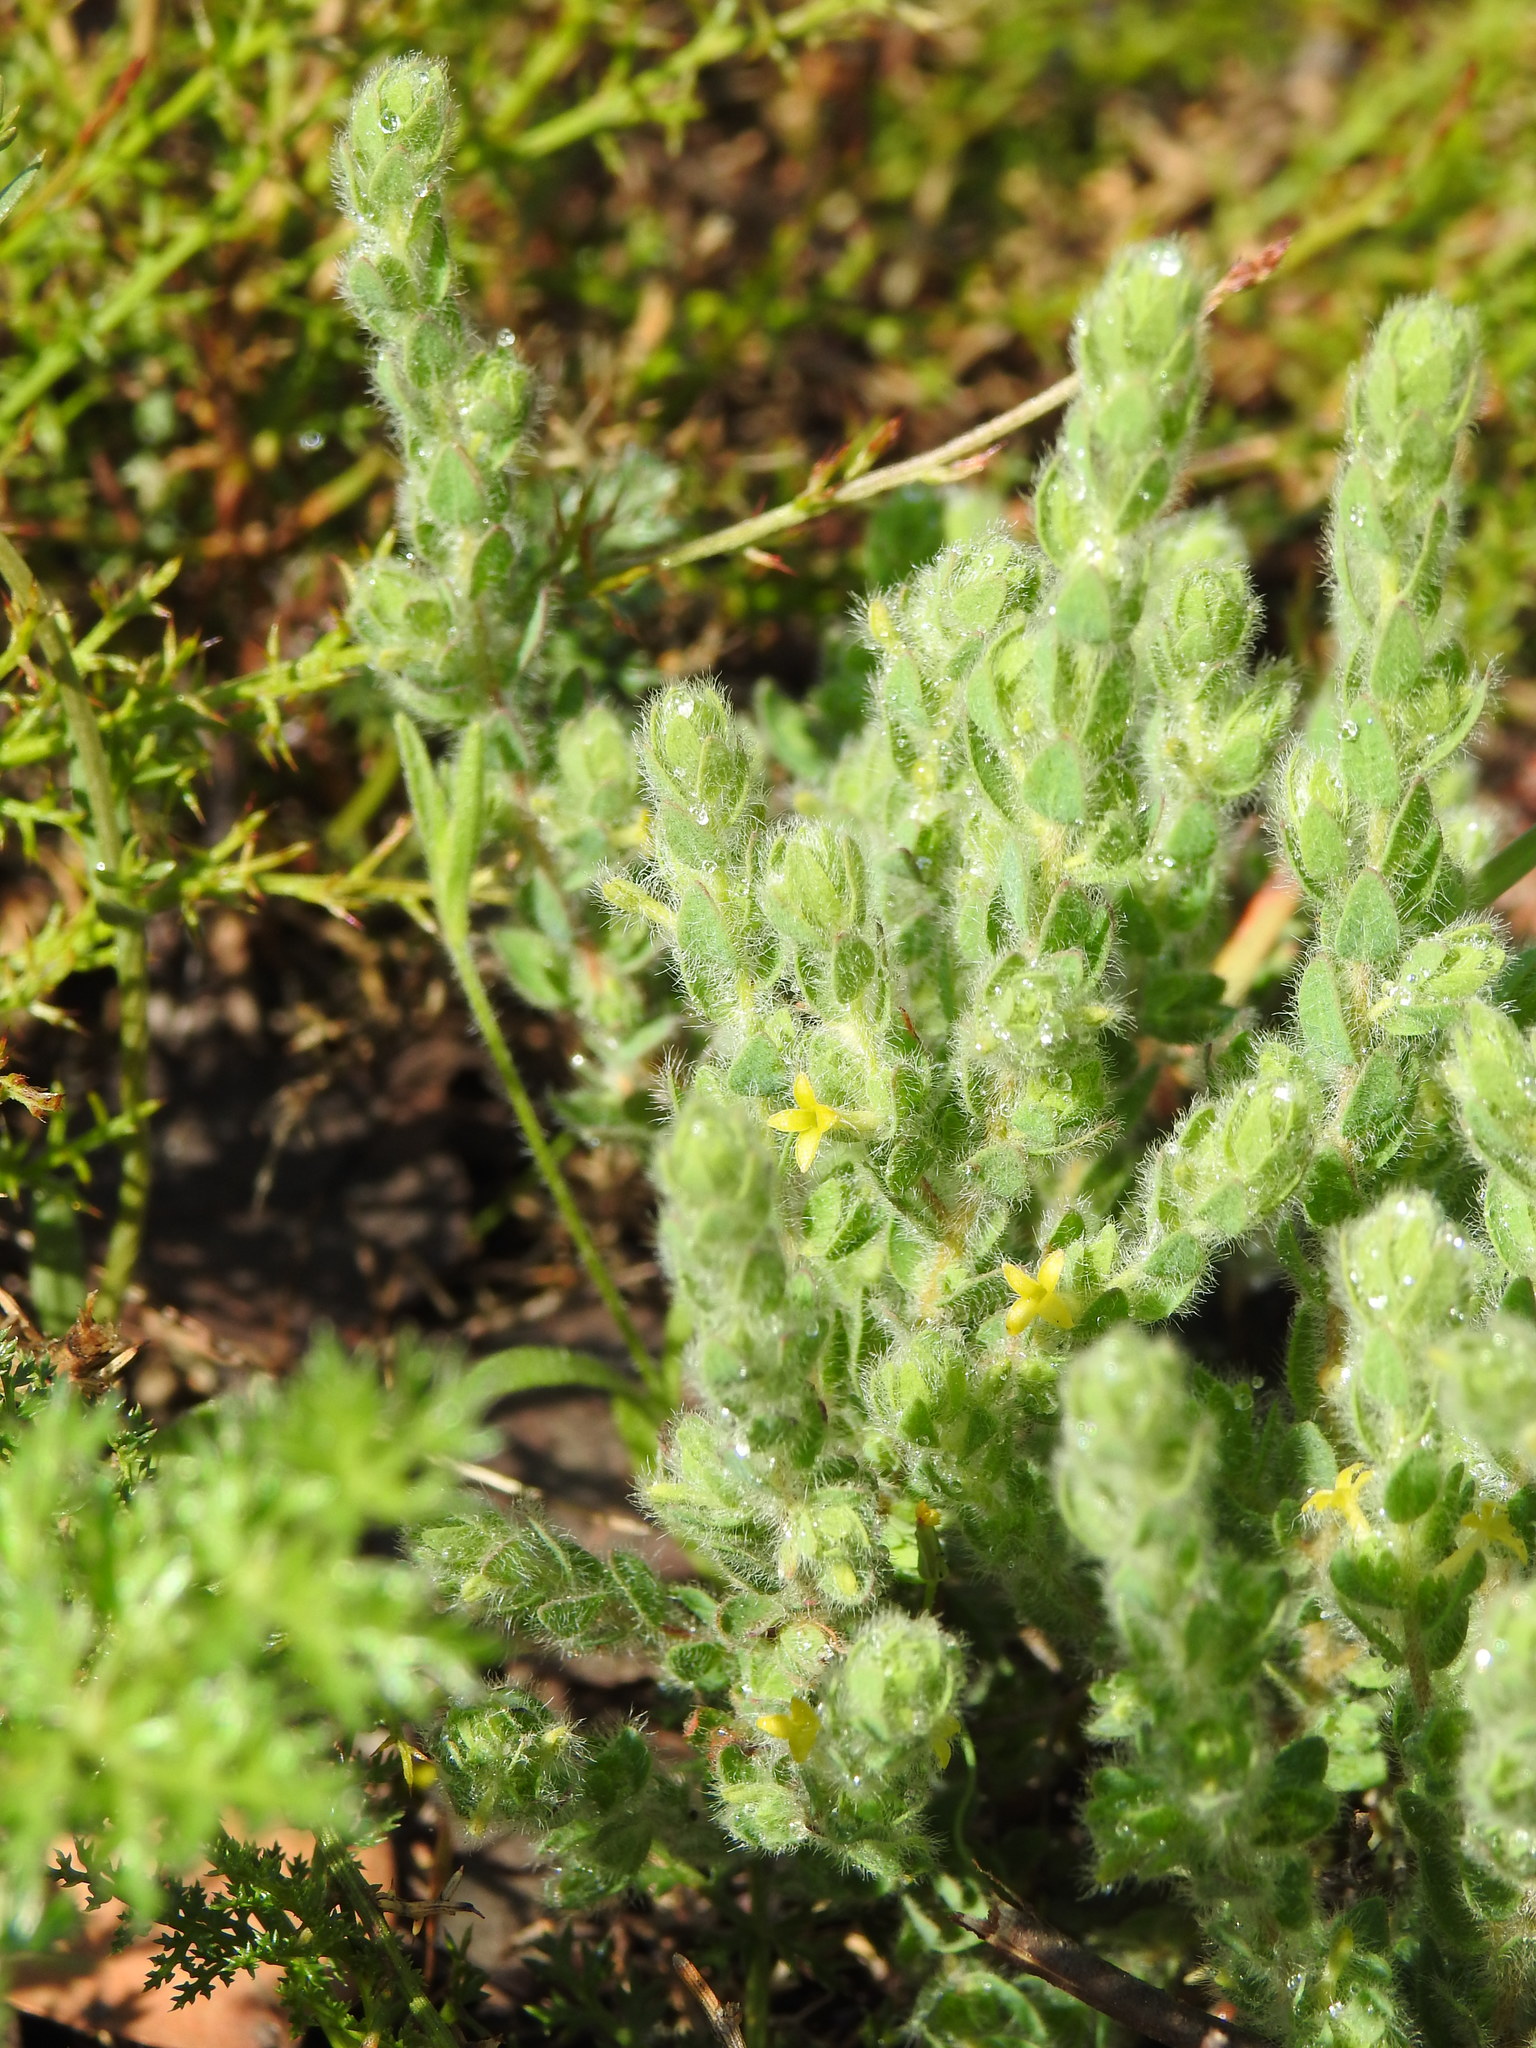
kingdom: Plantae
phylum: Tracheophyta
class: Magnoliopsida
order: Malvales
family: Thymelaeaceae
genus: Thymelaea
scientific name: Thymelaea villosa
